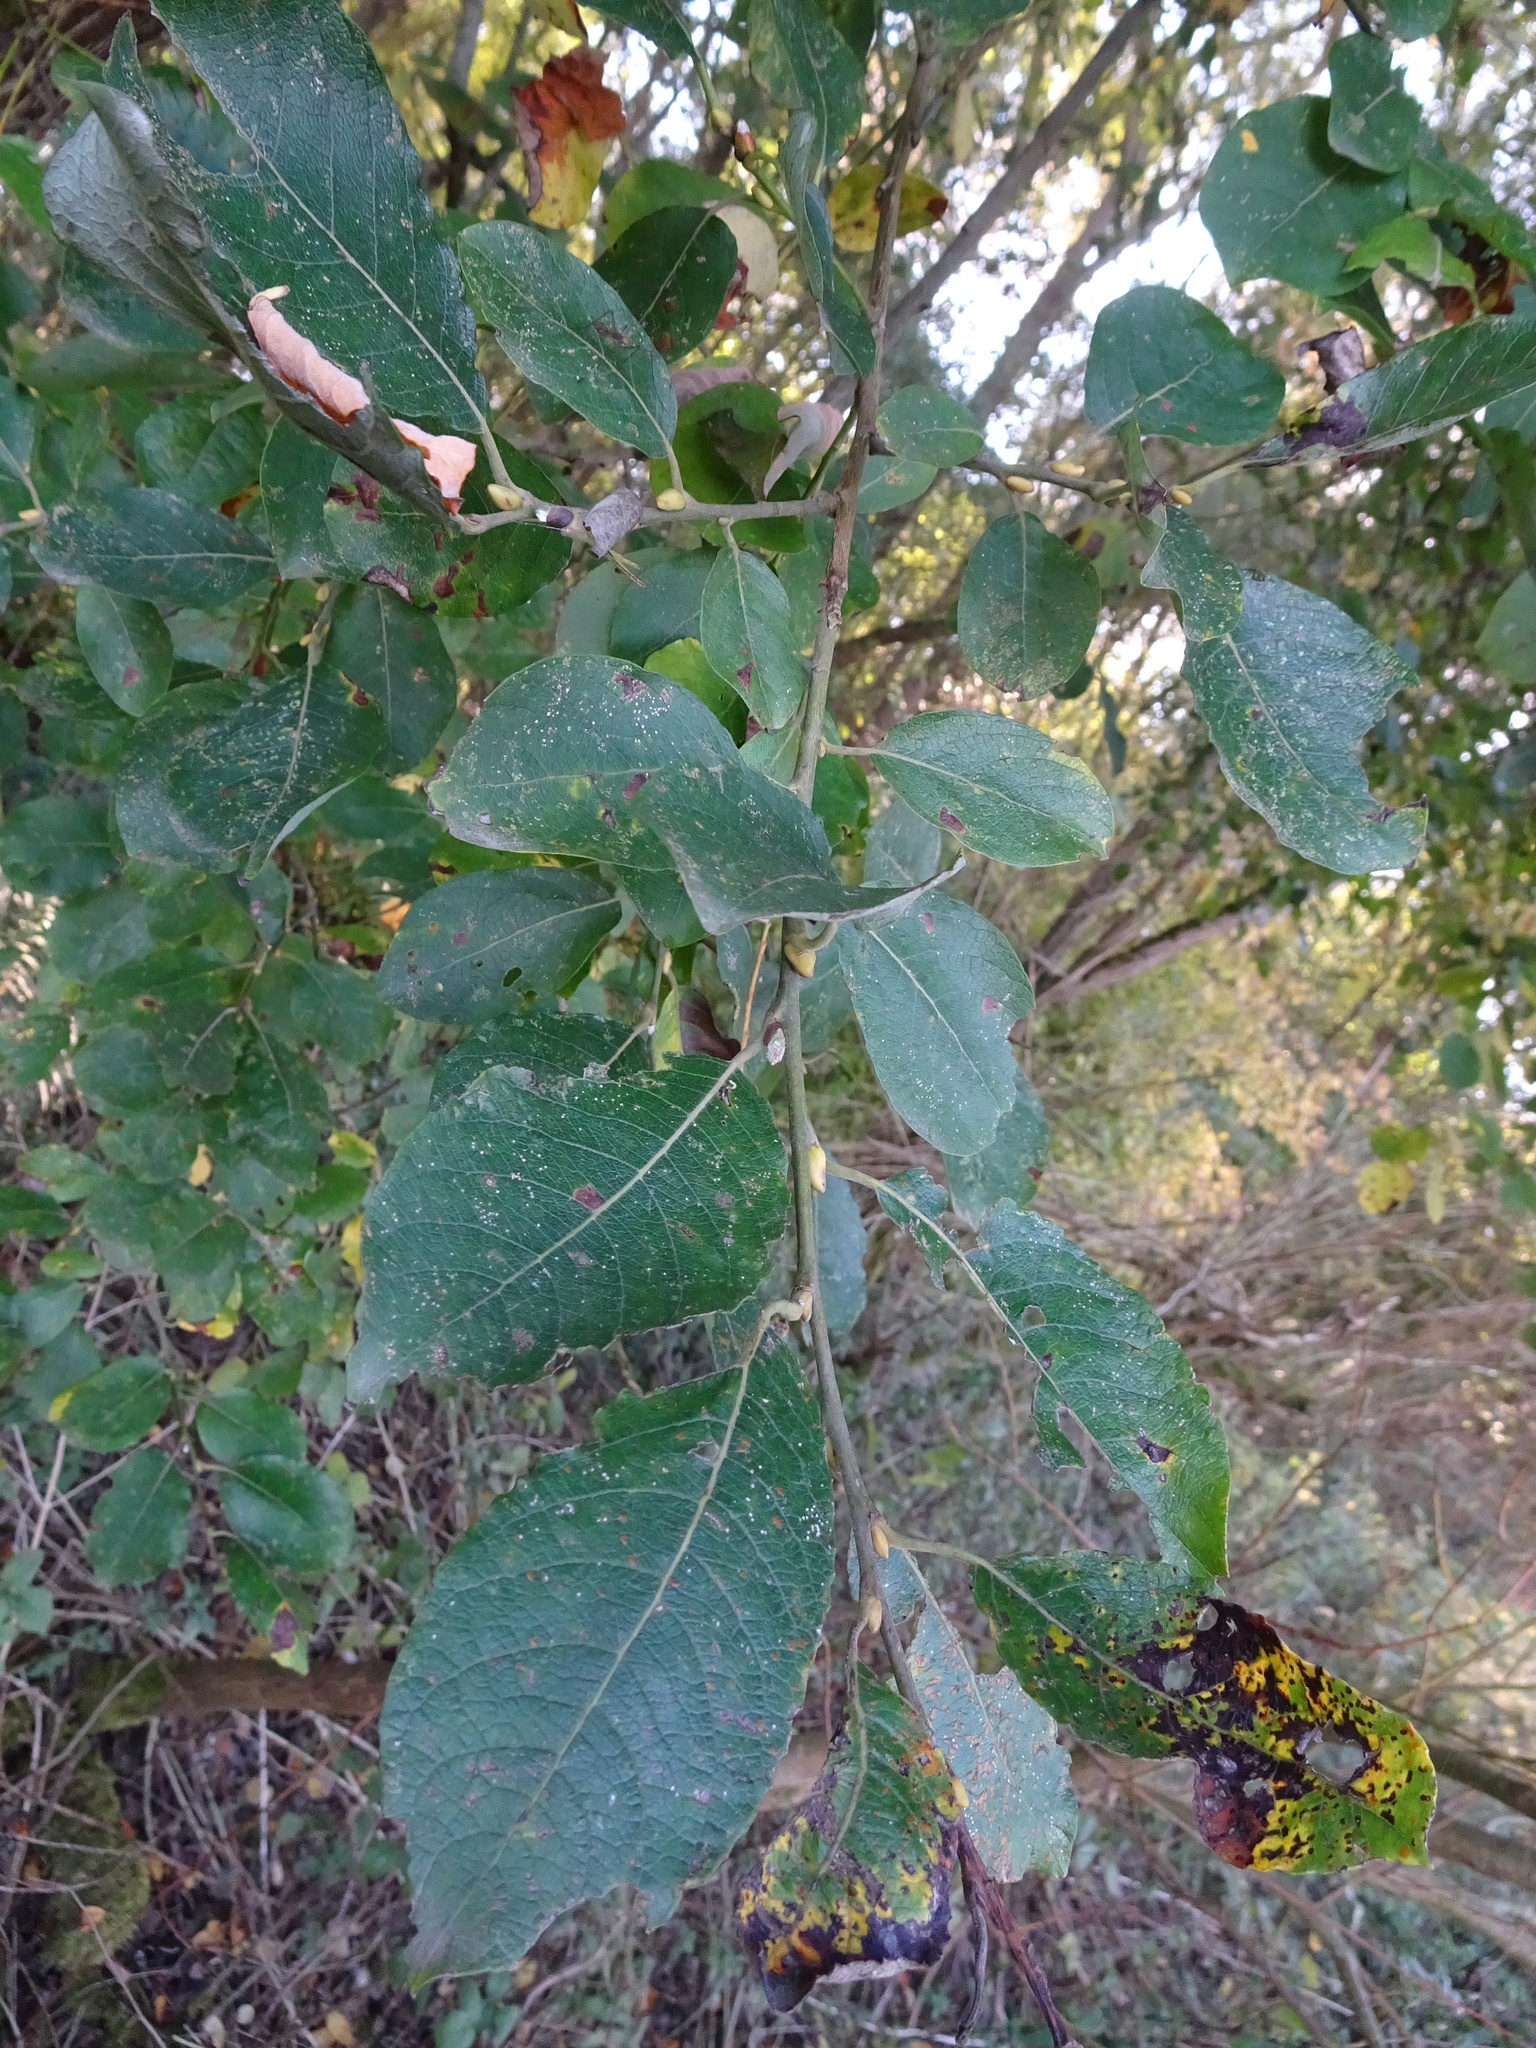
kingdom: Plantae
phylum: Tracheophyta
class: Magnoliopsida
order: Malpighiales
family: Salicaceae
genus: Salix
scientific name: Salix caprea
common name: Goat willow
